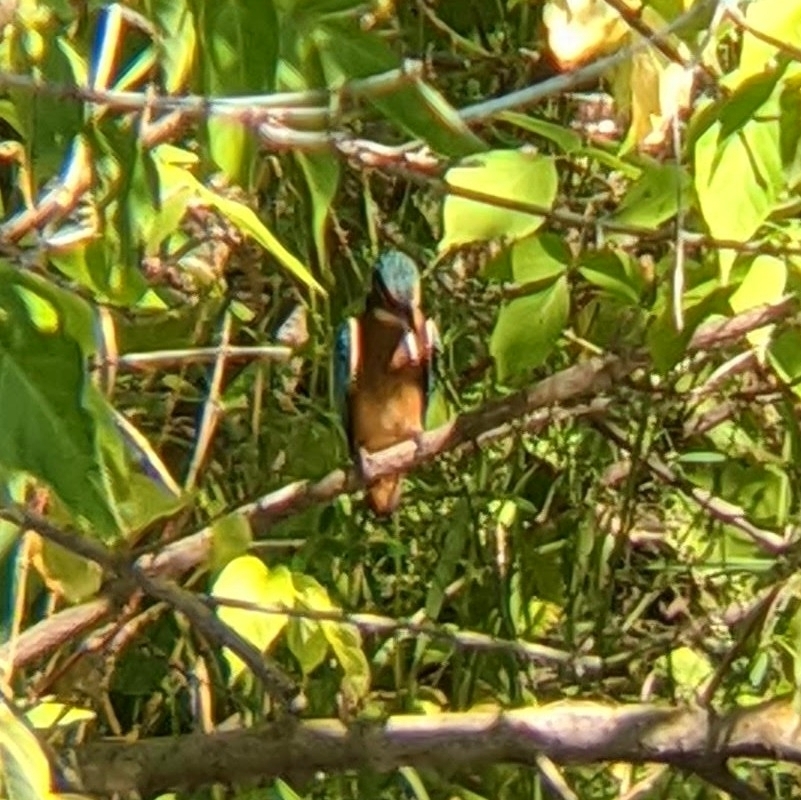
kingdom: Animalia
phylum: Chordata
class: Aves
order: Coraciiformes
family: Alcedinidae
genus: Alcedo
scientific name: Alcedo atthis
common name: Common kingfisher
